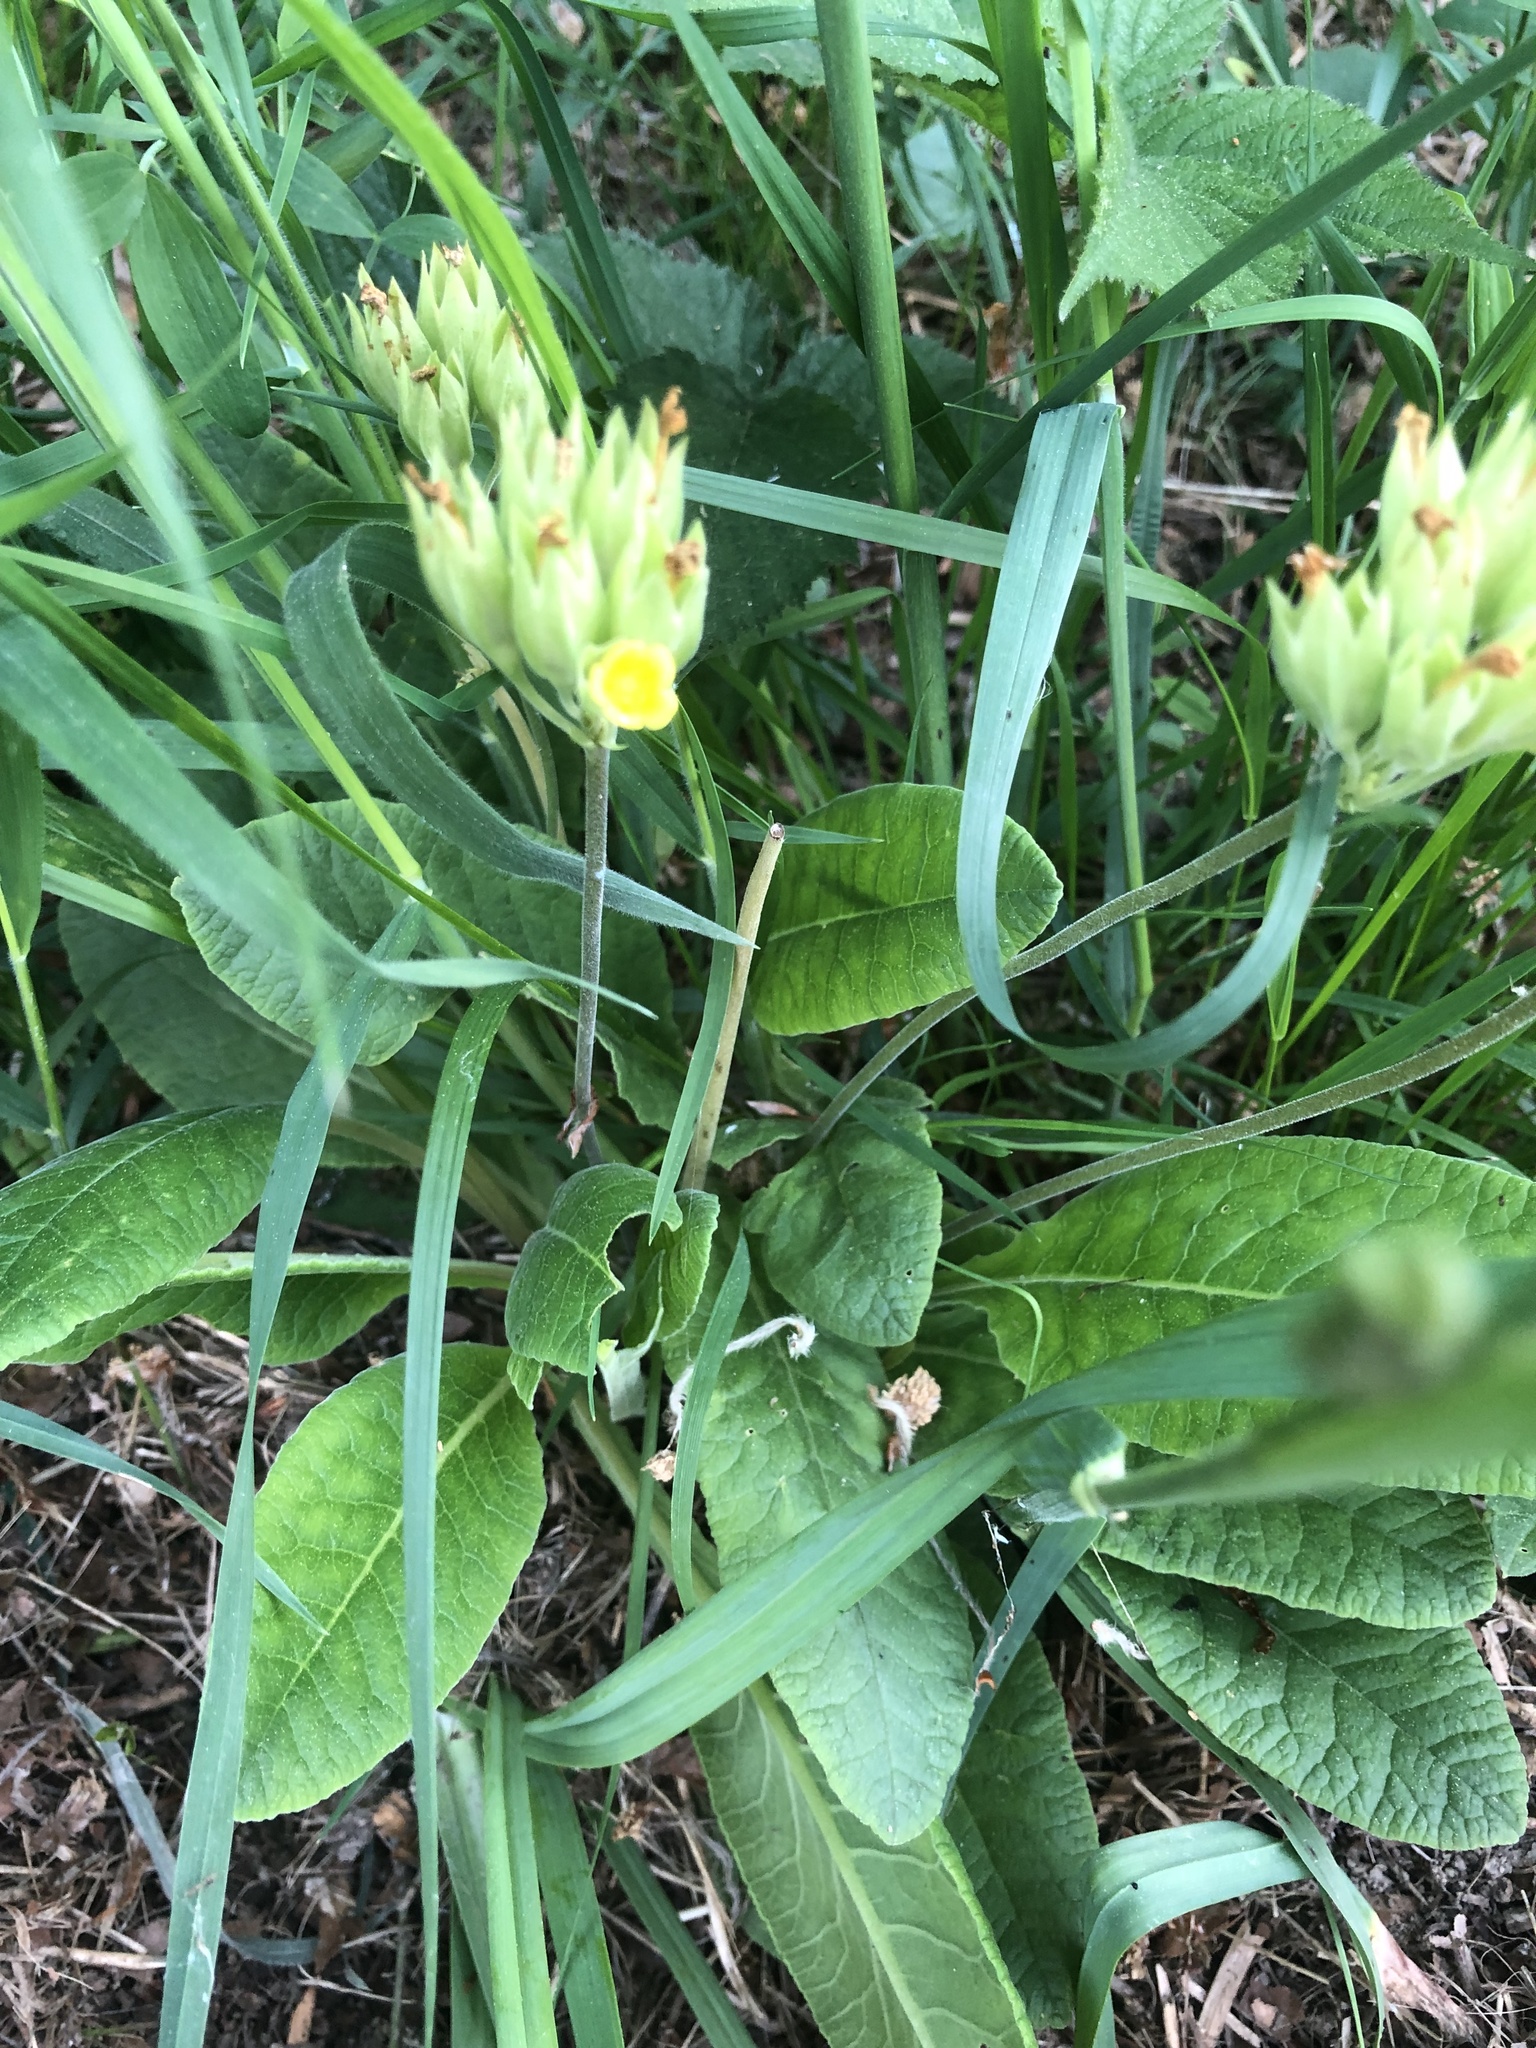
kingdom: Plantae
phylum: Tracheophyta
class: Magnoliopsida
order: Ericales
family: Primulaceae
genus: Primula
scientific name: Primula veris
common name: Cowslip
